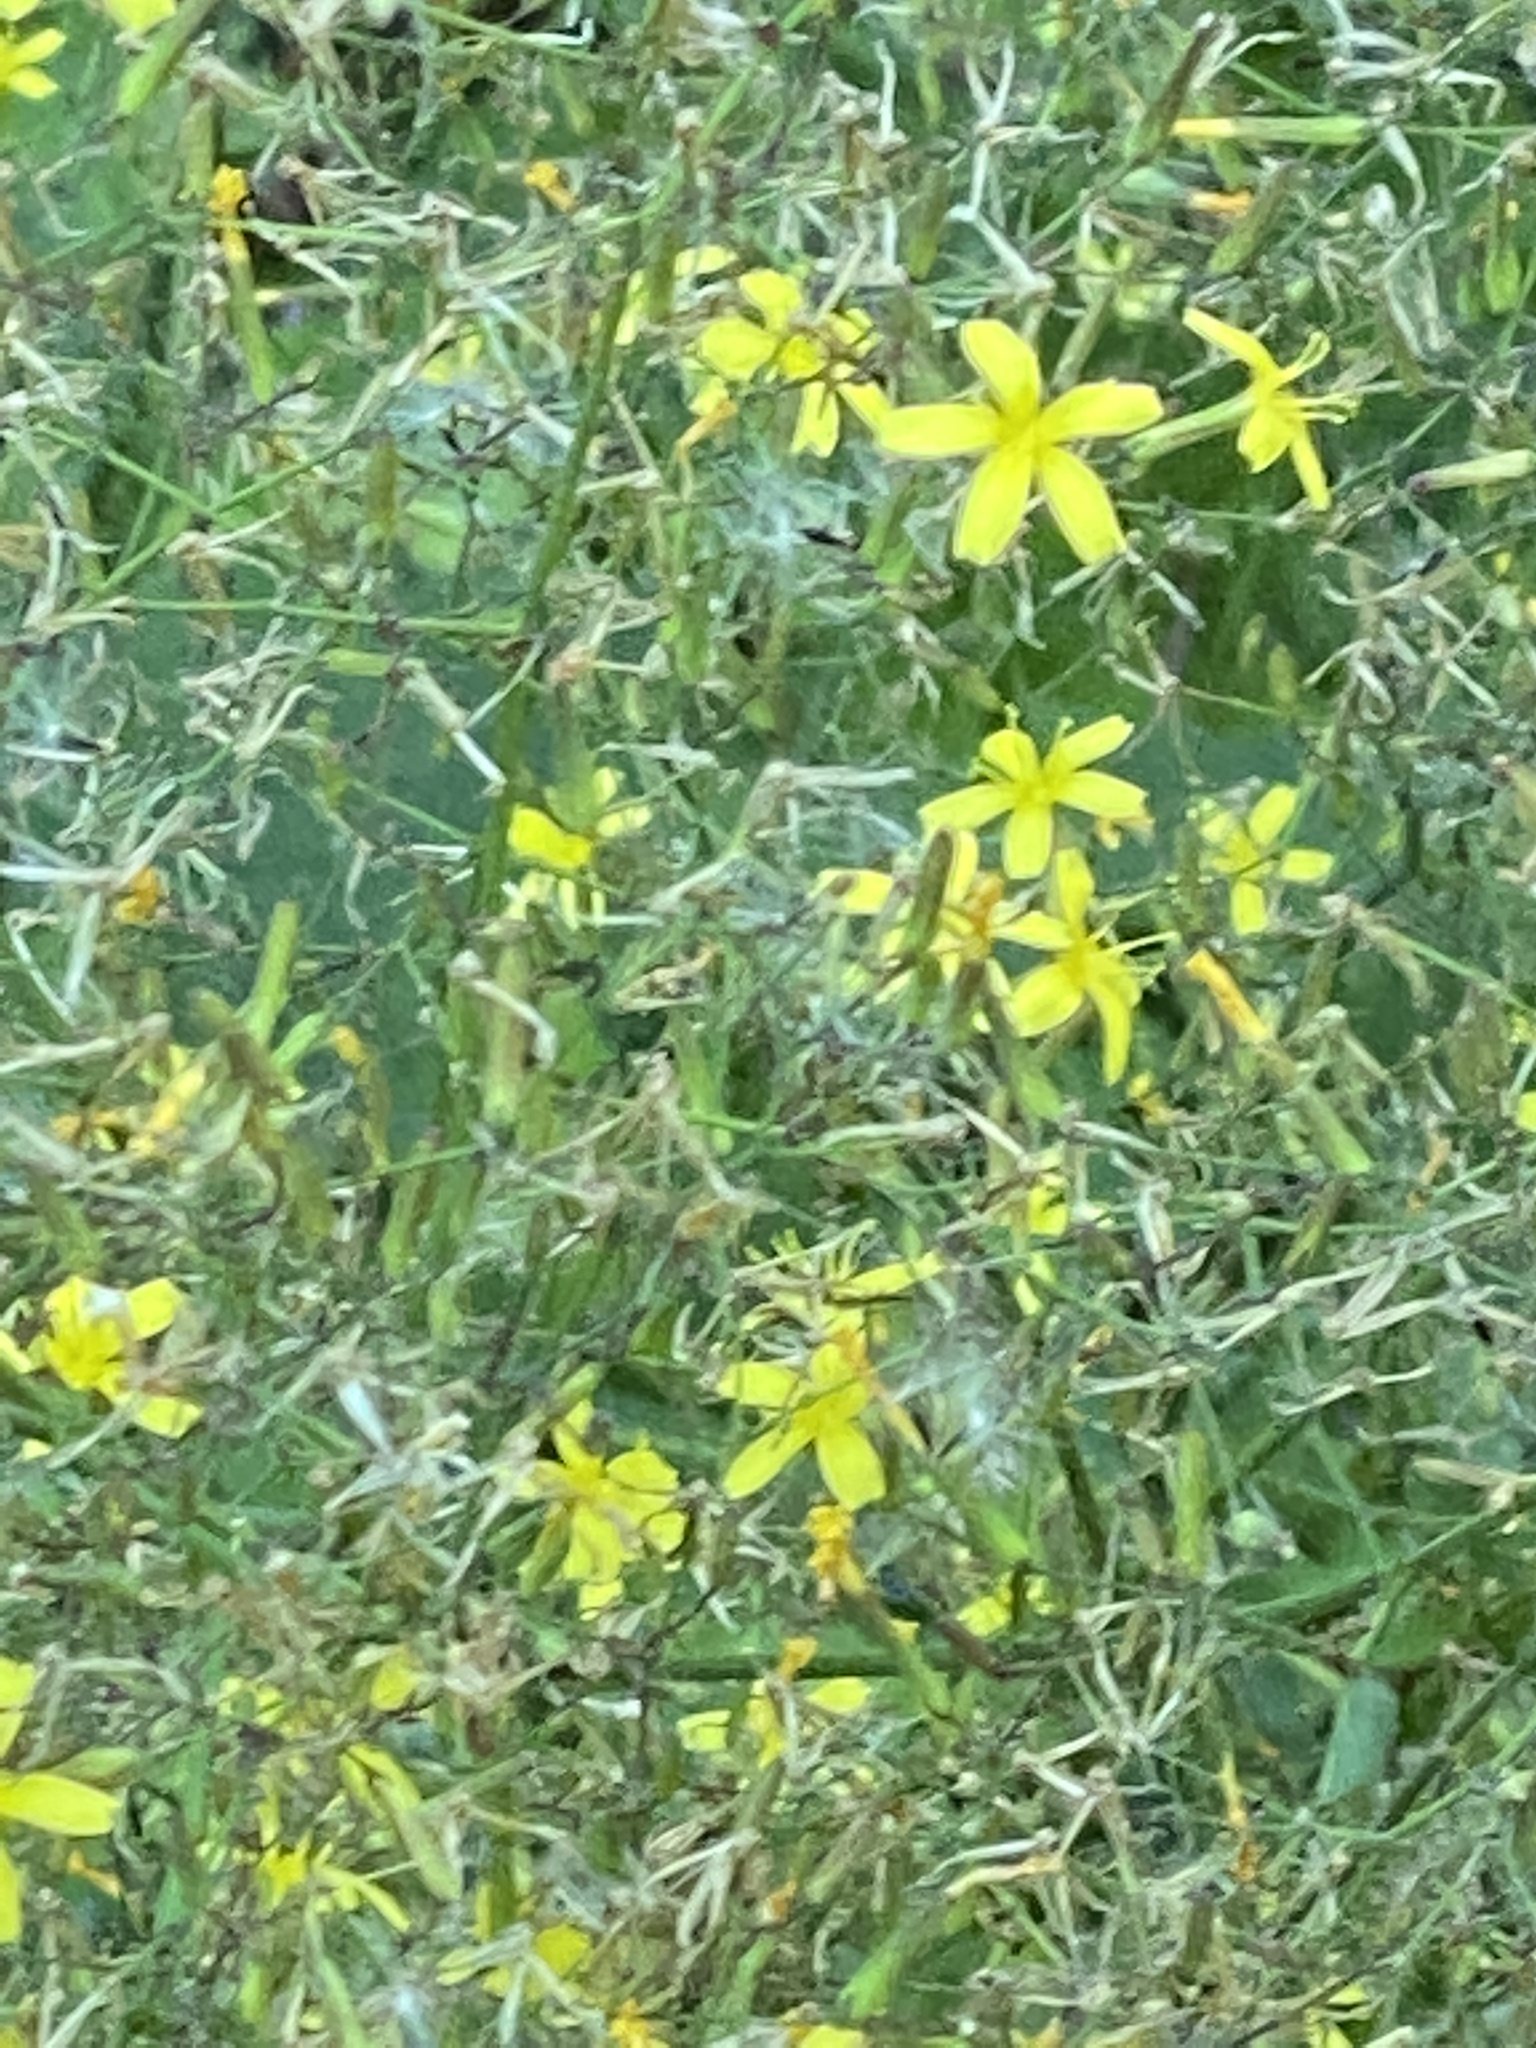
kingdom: Plantae
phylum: Tracheophyta
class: Magnoliopsida
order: Asterales
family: Asteraceae
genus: Mycelis
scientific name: Mycelis muralis
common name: Wall lettuce
